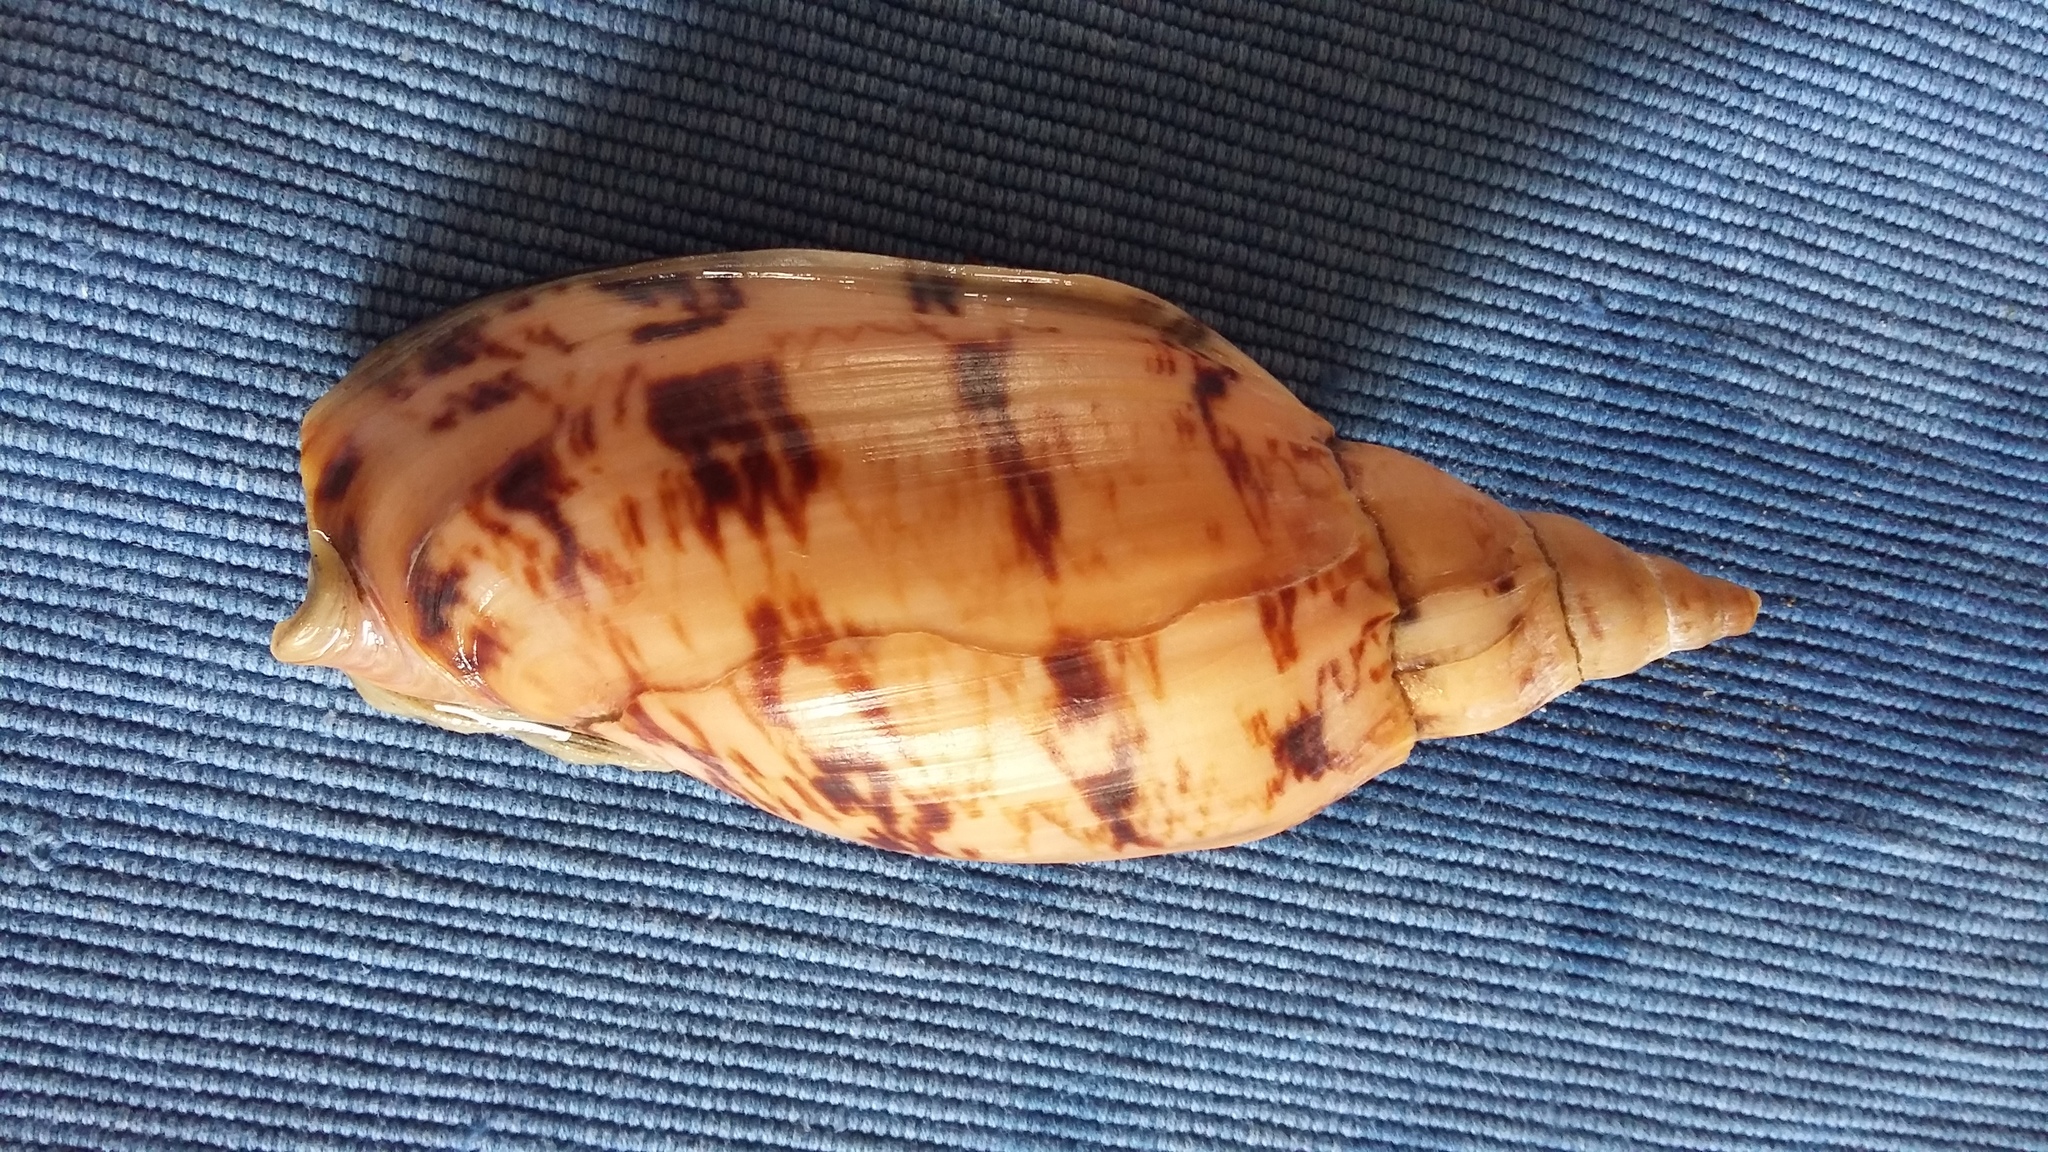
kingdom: Animalia
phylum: Mollusca
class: Gastropoda
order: Neogastropoda
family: Volutidae
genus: Alcithoe
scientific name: Alcithoe arabica
